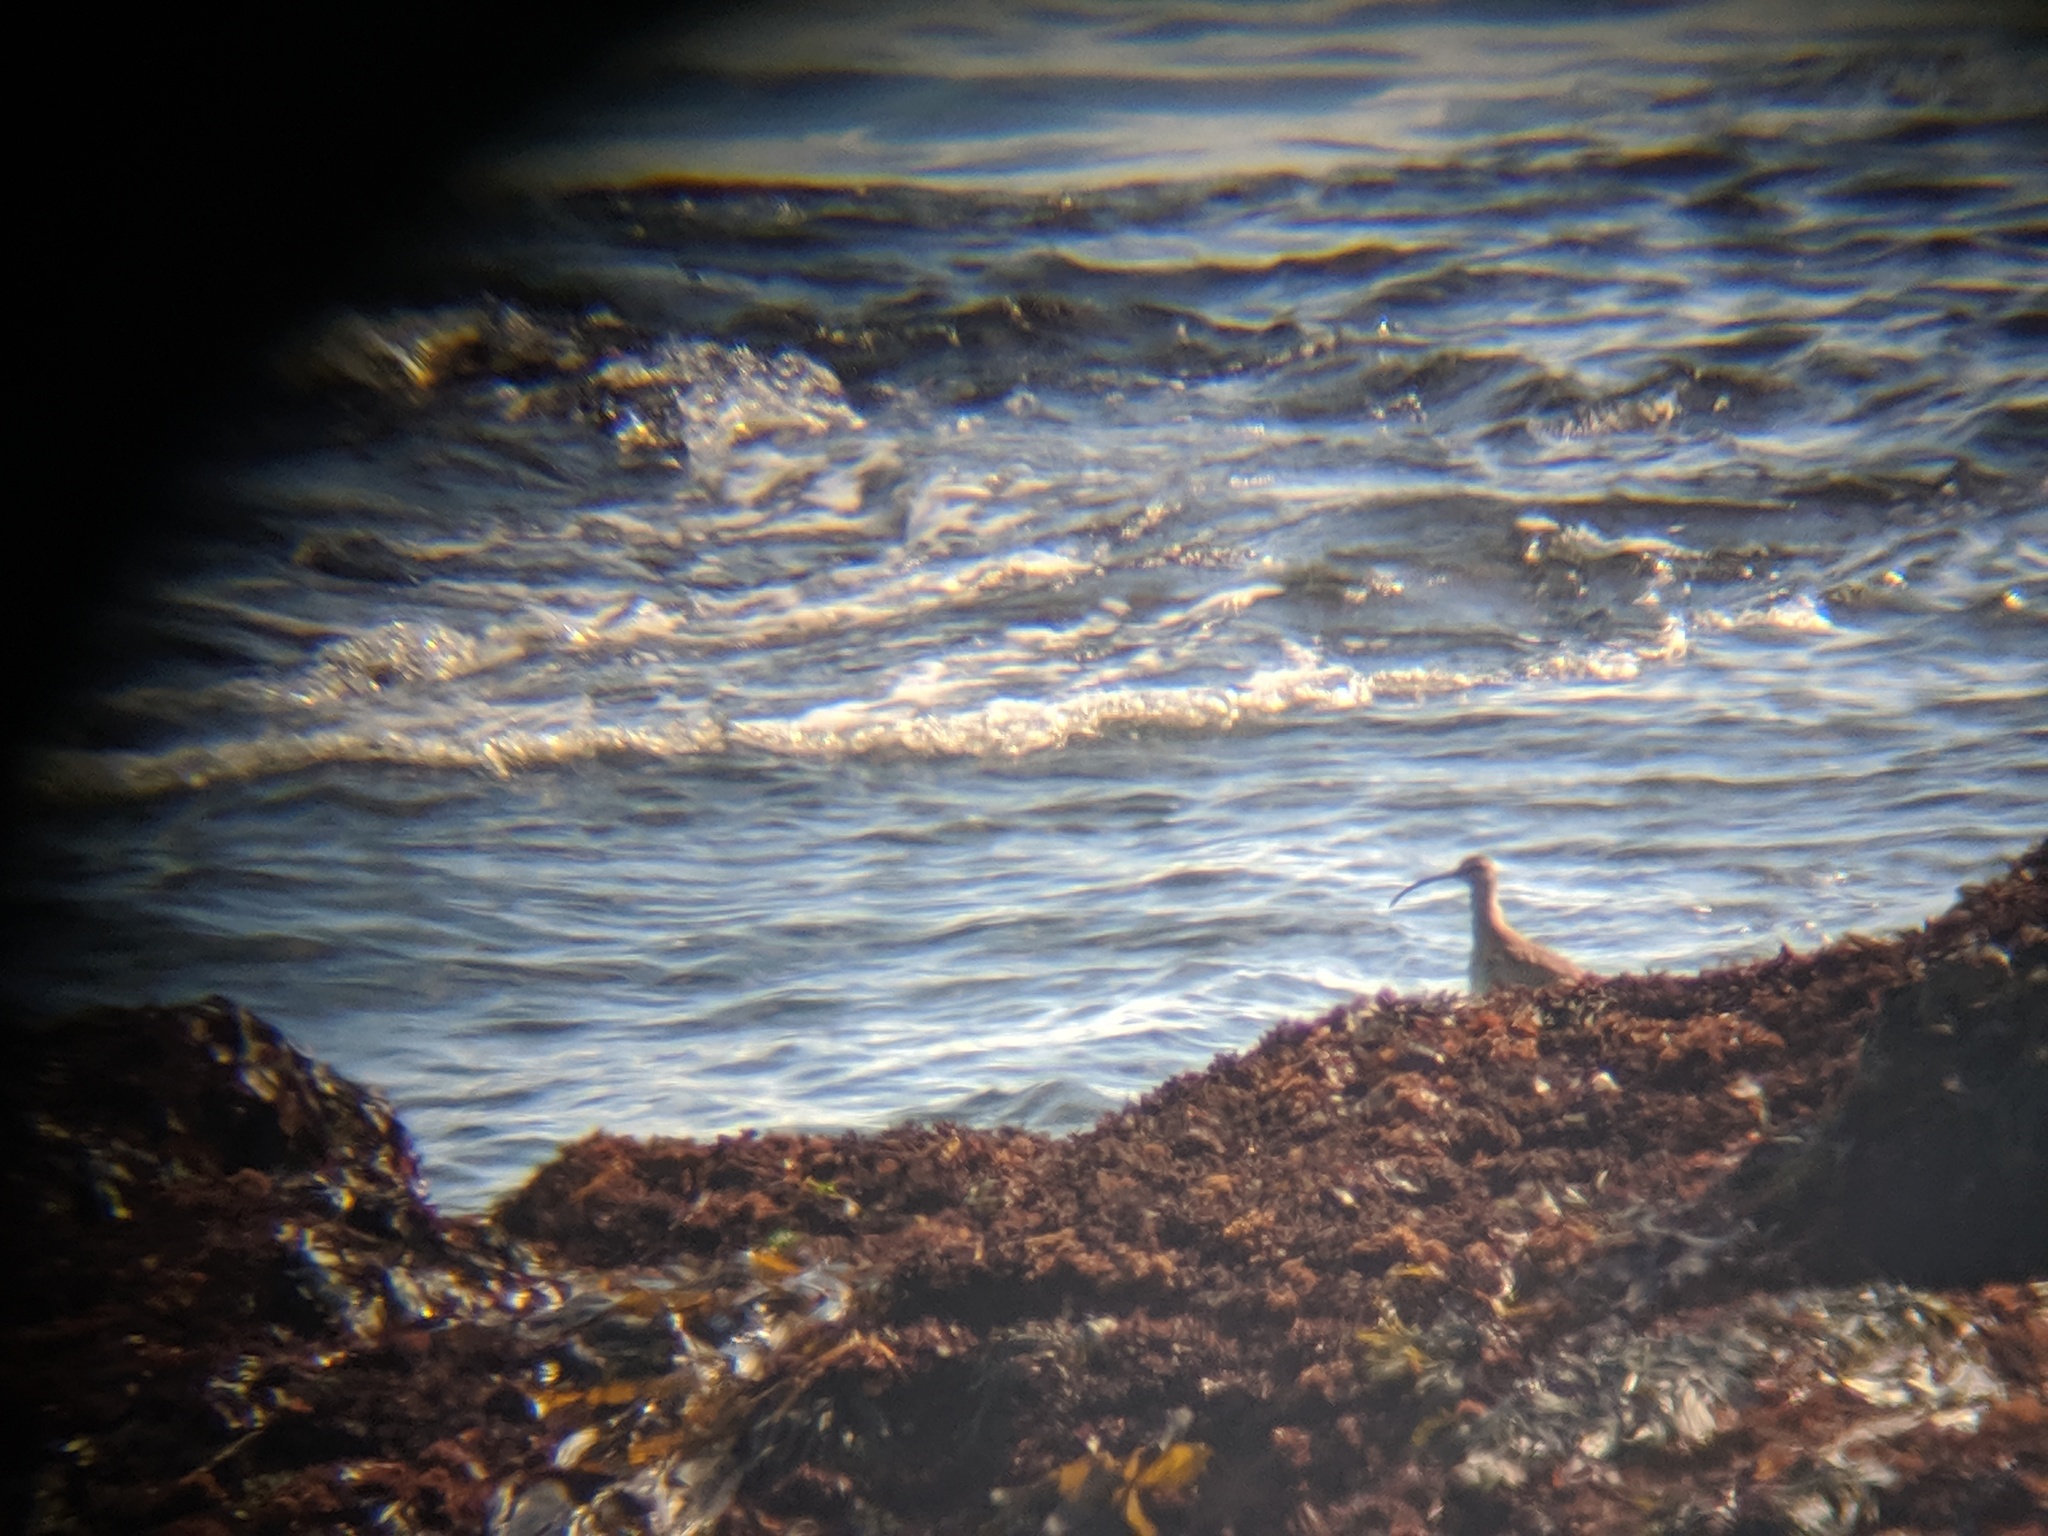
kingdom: Animalia
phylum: Chordata
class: Aves
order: Charadriiformes
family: Scolopacidae
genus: Numenius
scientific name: Numenius phaeopus
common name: Whimbrel
